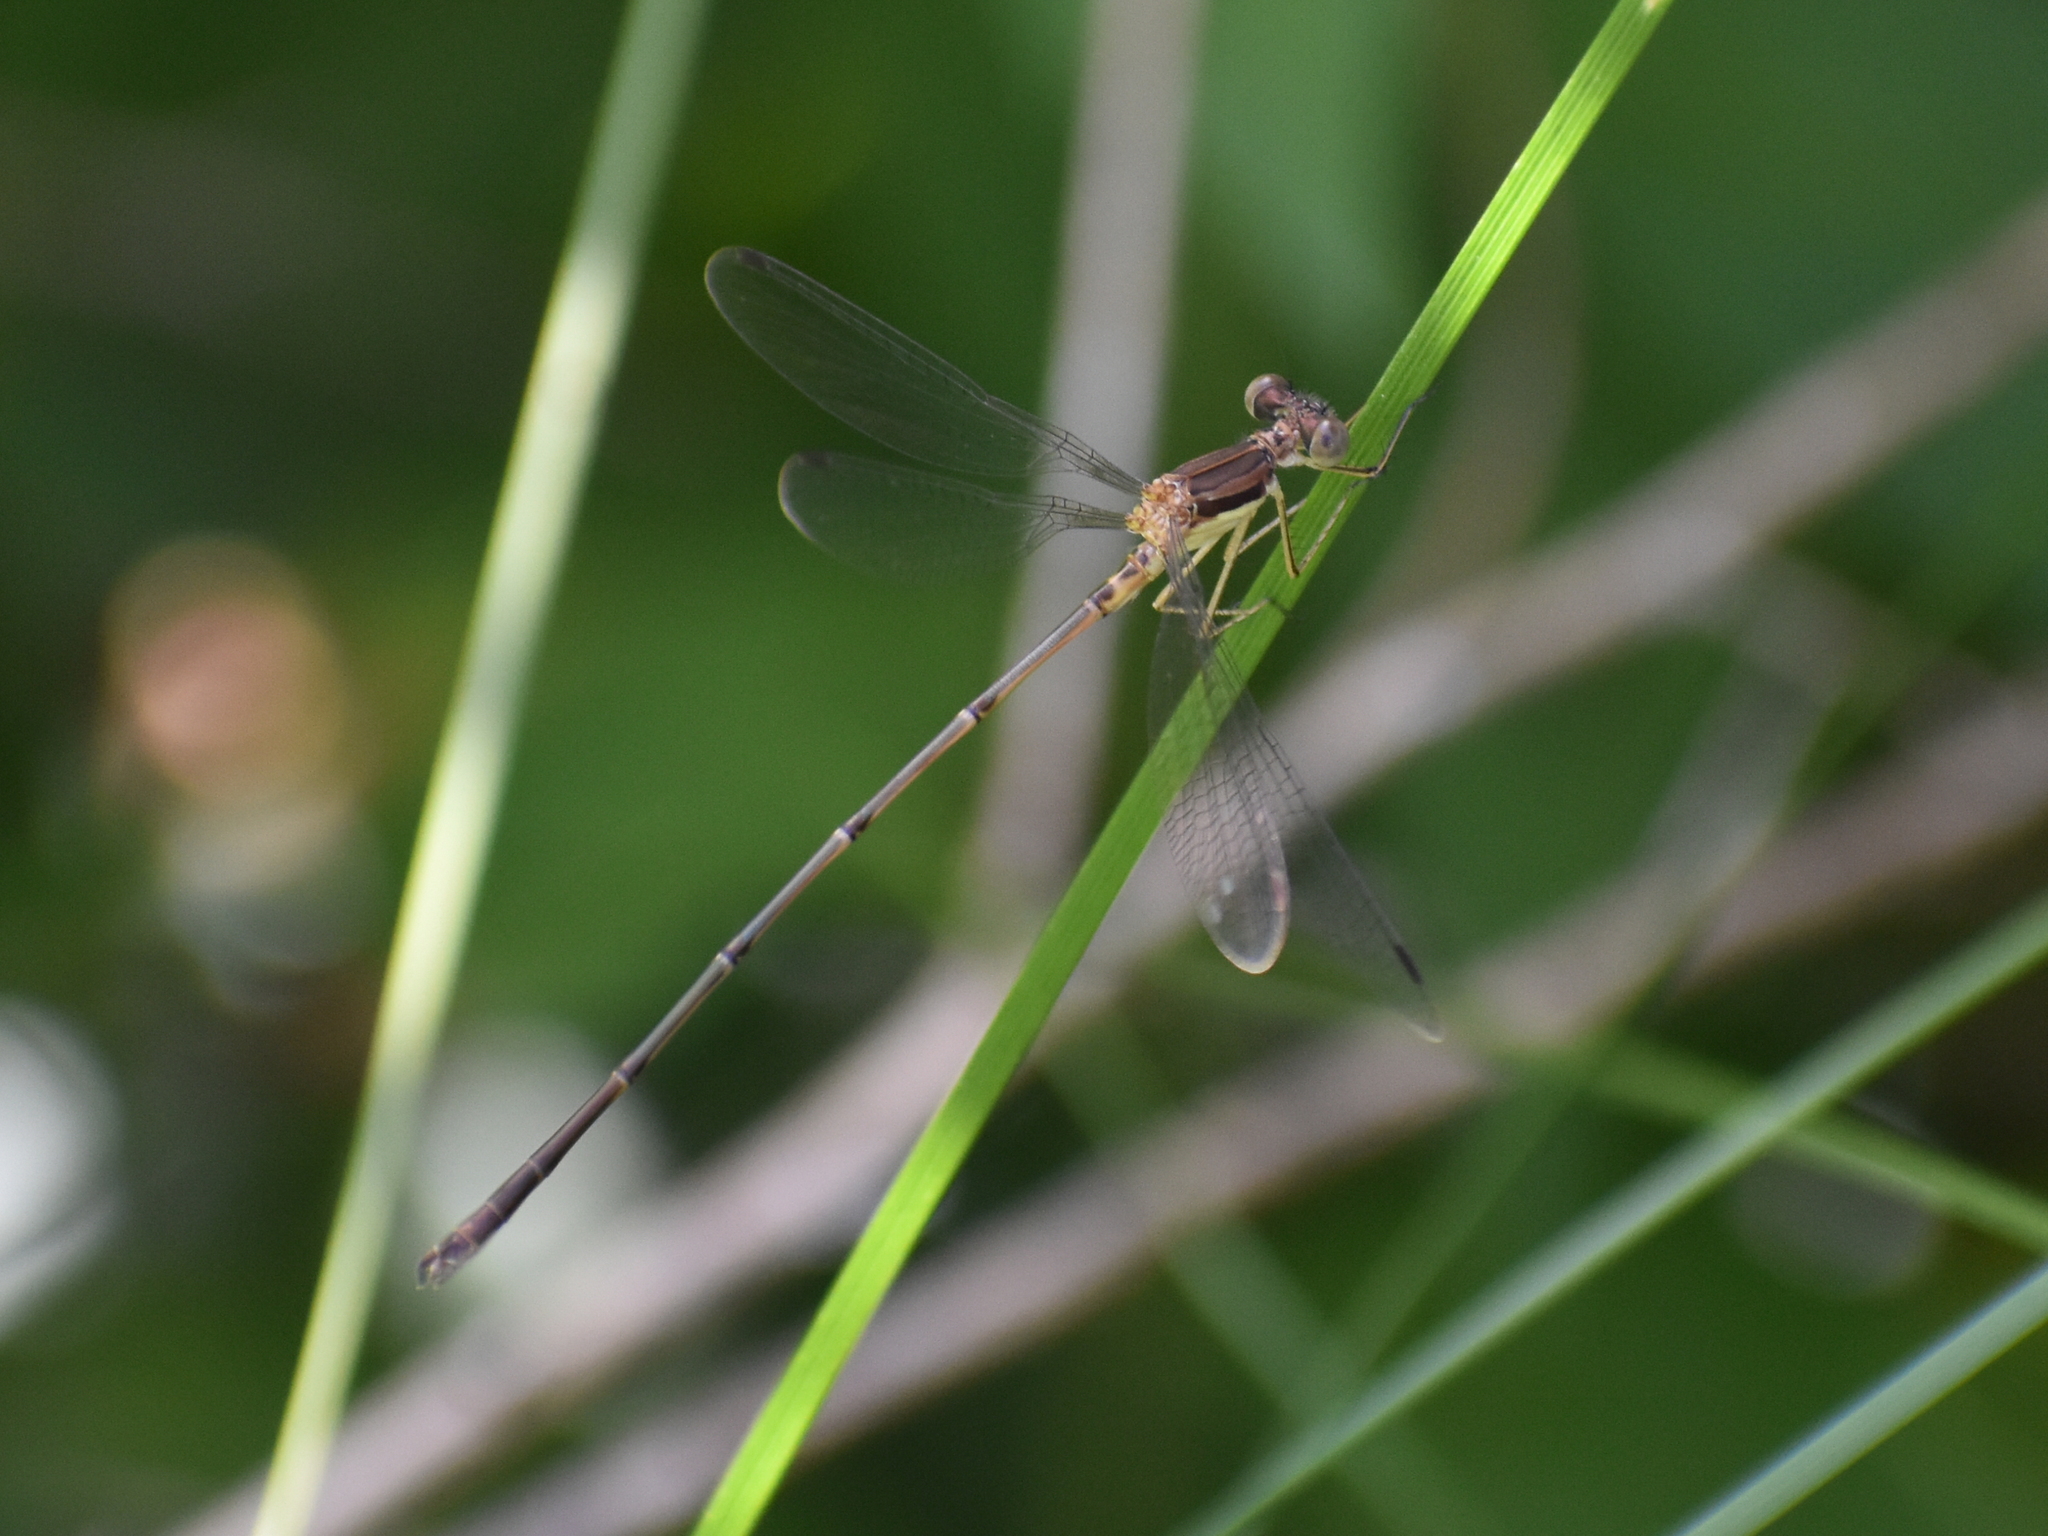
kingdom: Animalia
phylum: Arthropoda
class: Insecta
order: Odonata
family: Lestidae
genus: Lestes
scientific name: Lestes rectangularis
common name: Slender spreadwing
